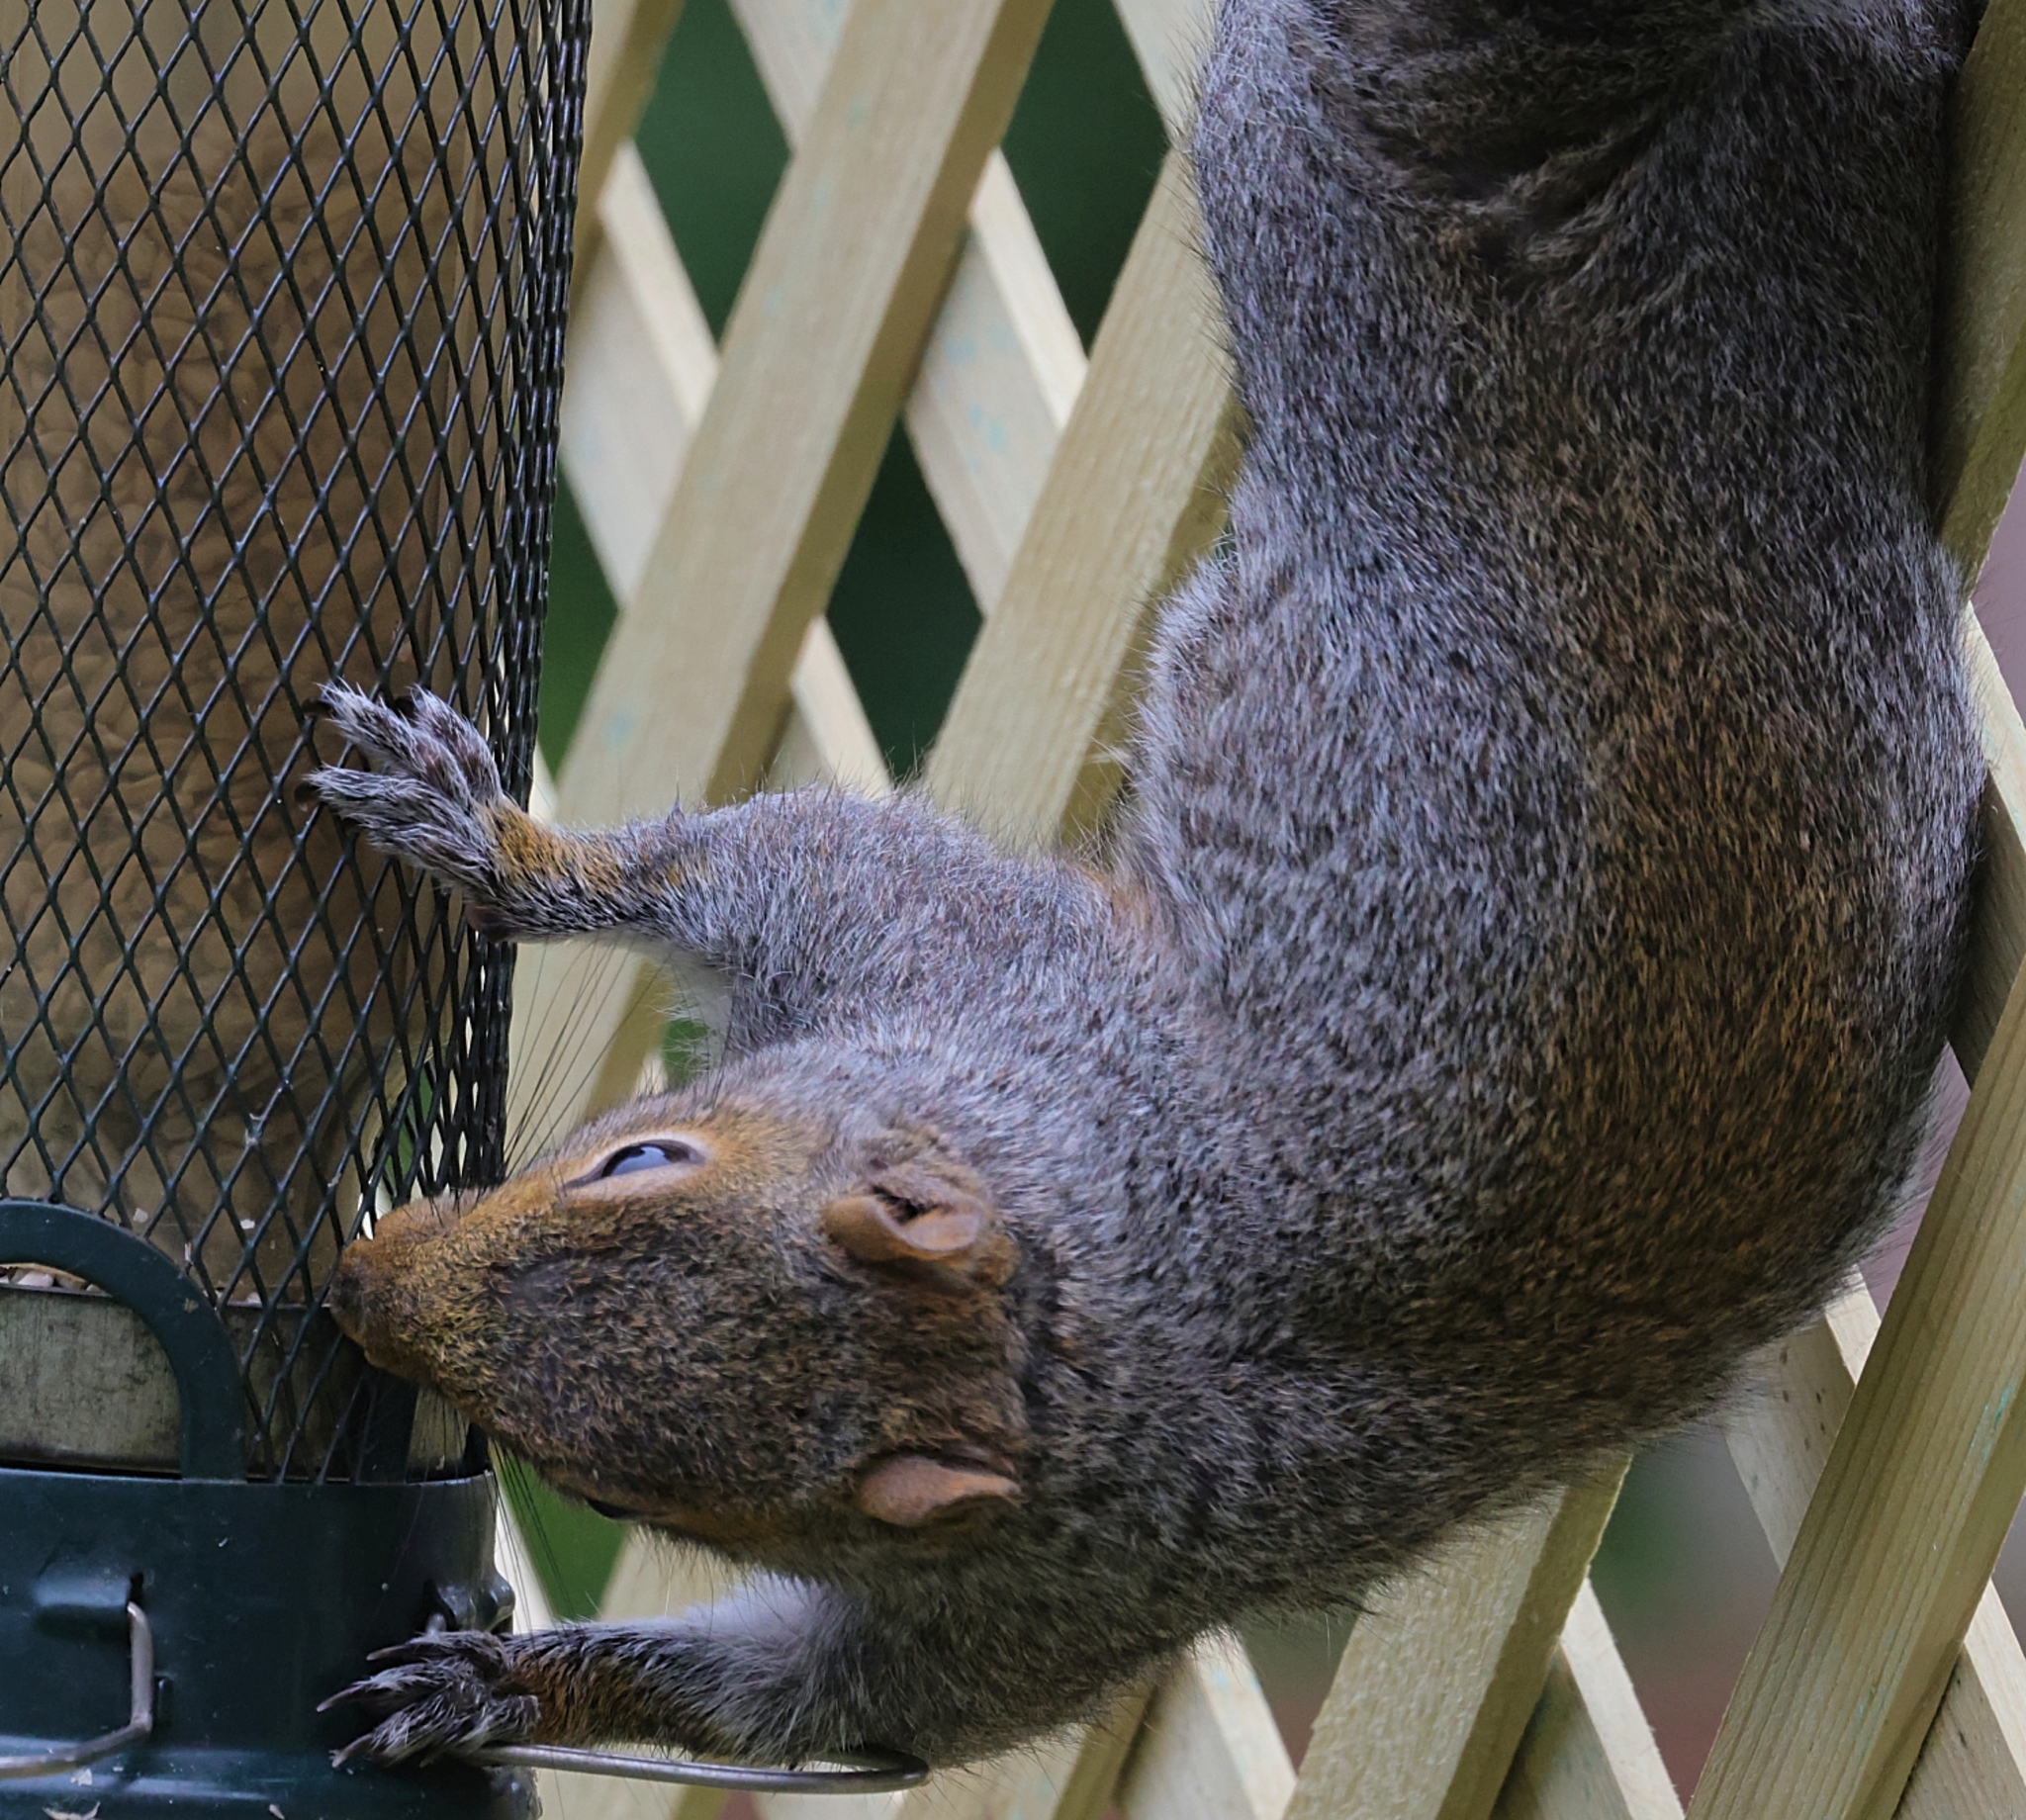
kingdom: Animalia
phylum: Chordata
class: Mammalia
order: Rodentia
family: Sciuridae
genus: Sciurus
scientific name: Sciurus carolinensis
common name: Eastern gray squirrel
